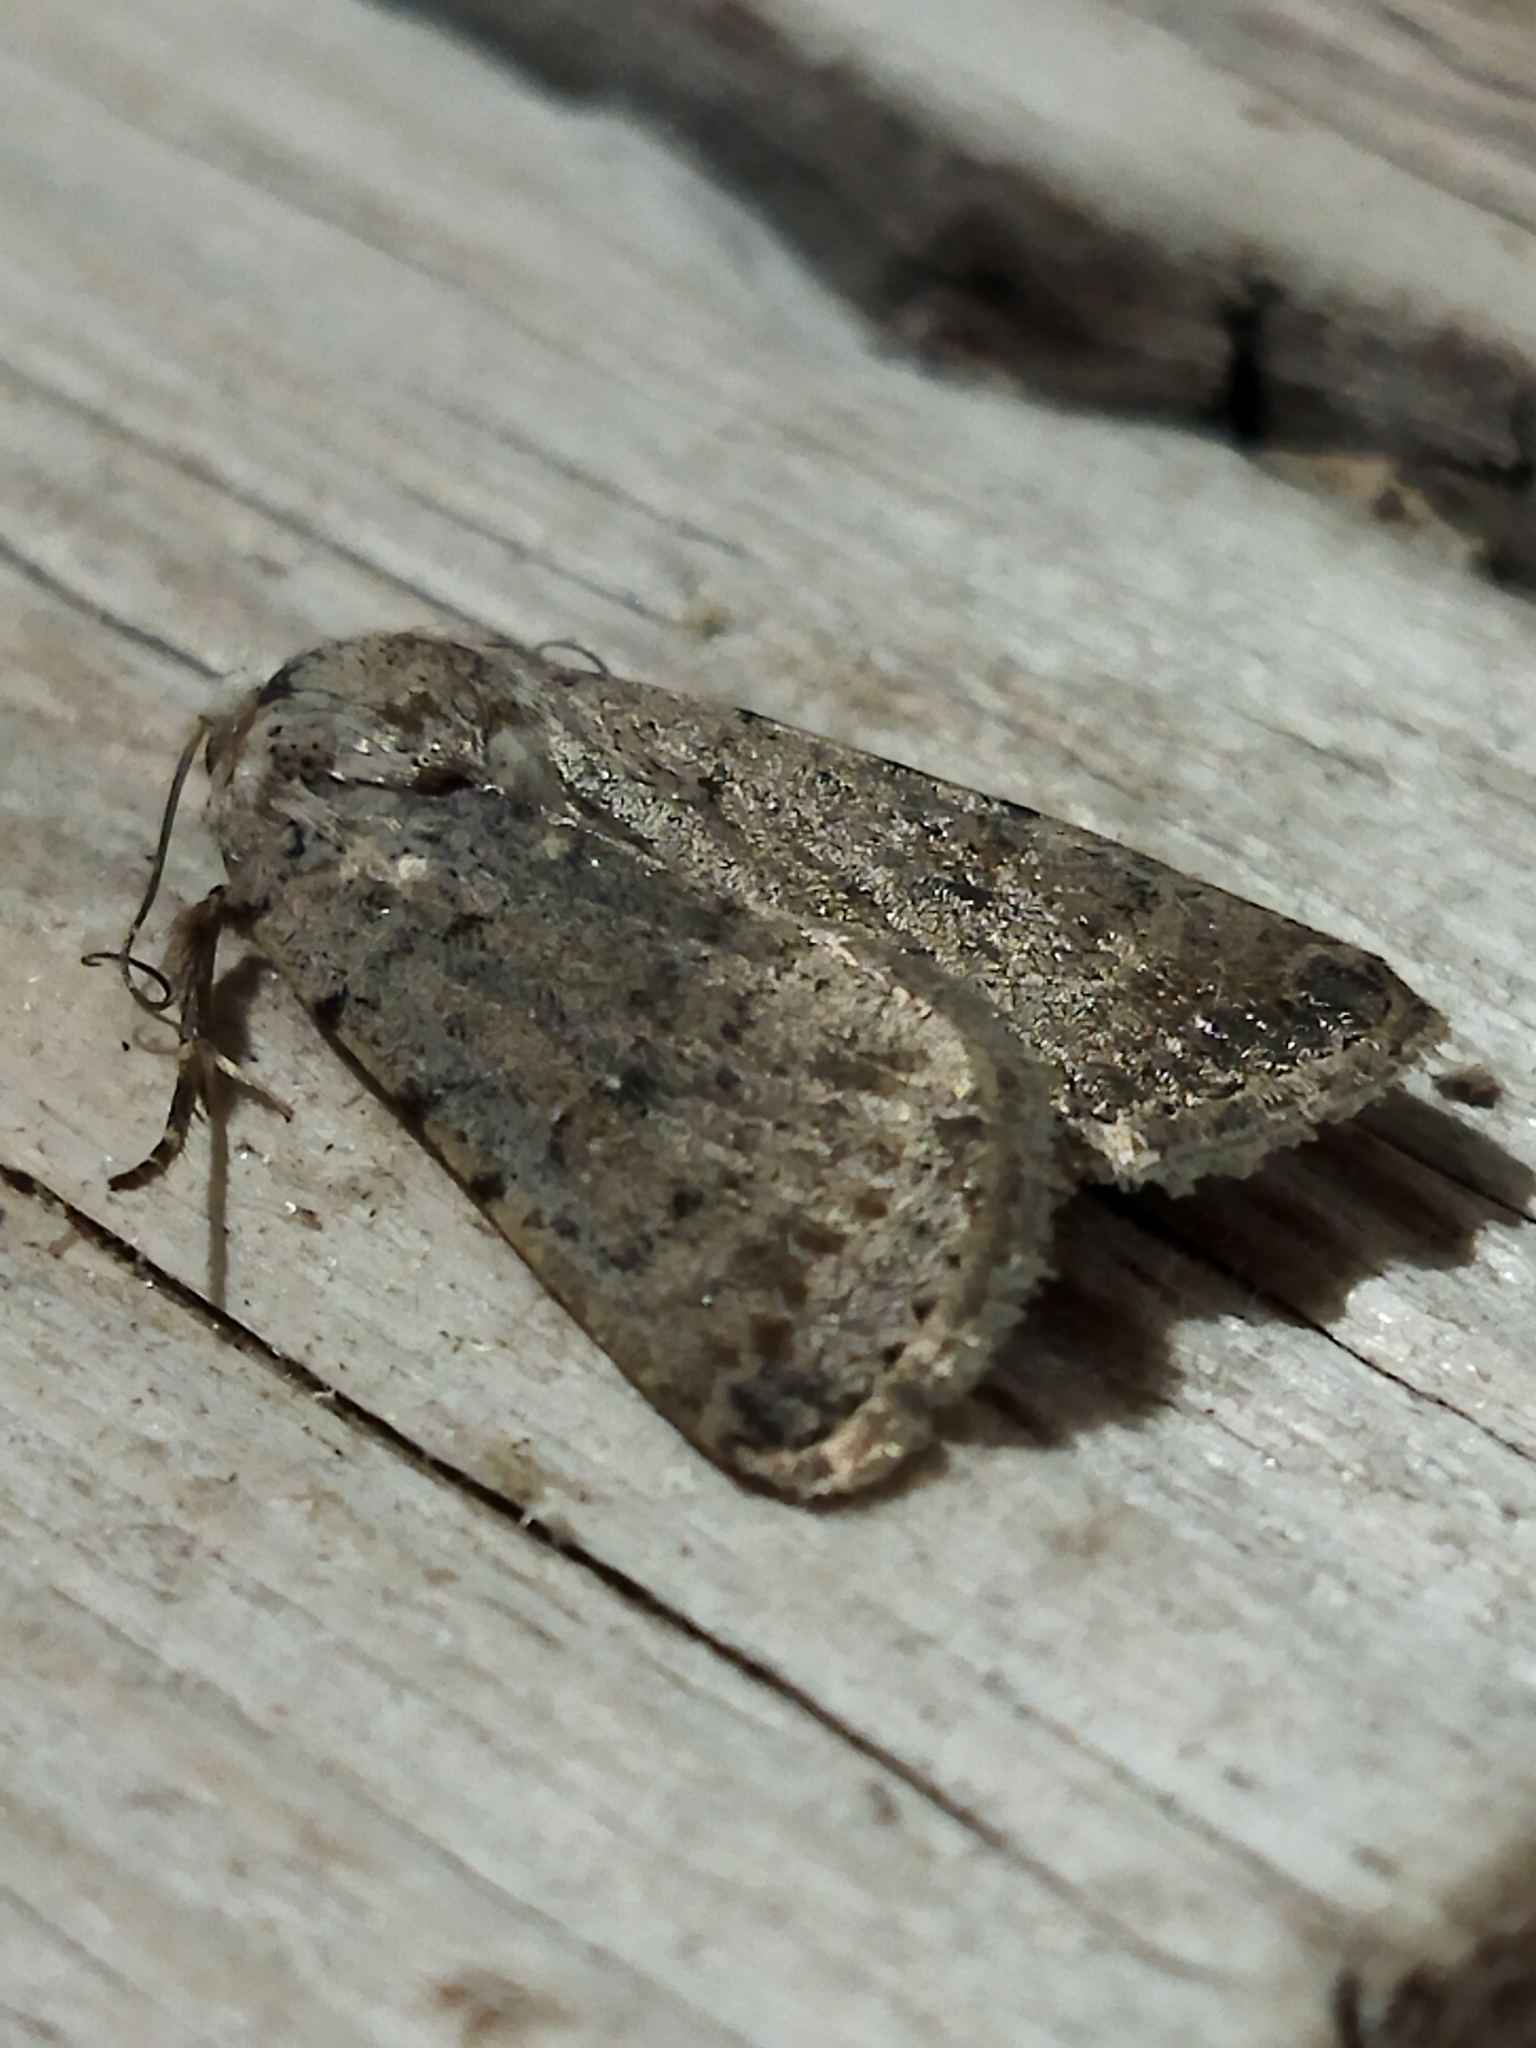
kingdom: Animalia
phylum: Arthropoda
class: Insecta
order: Lepidoptera
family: Noctuidae
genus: Caradrina
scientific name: Caradrina clavipalpis
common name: Pale mottled willow
